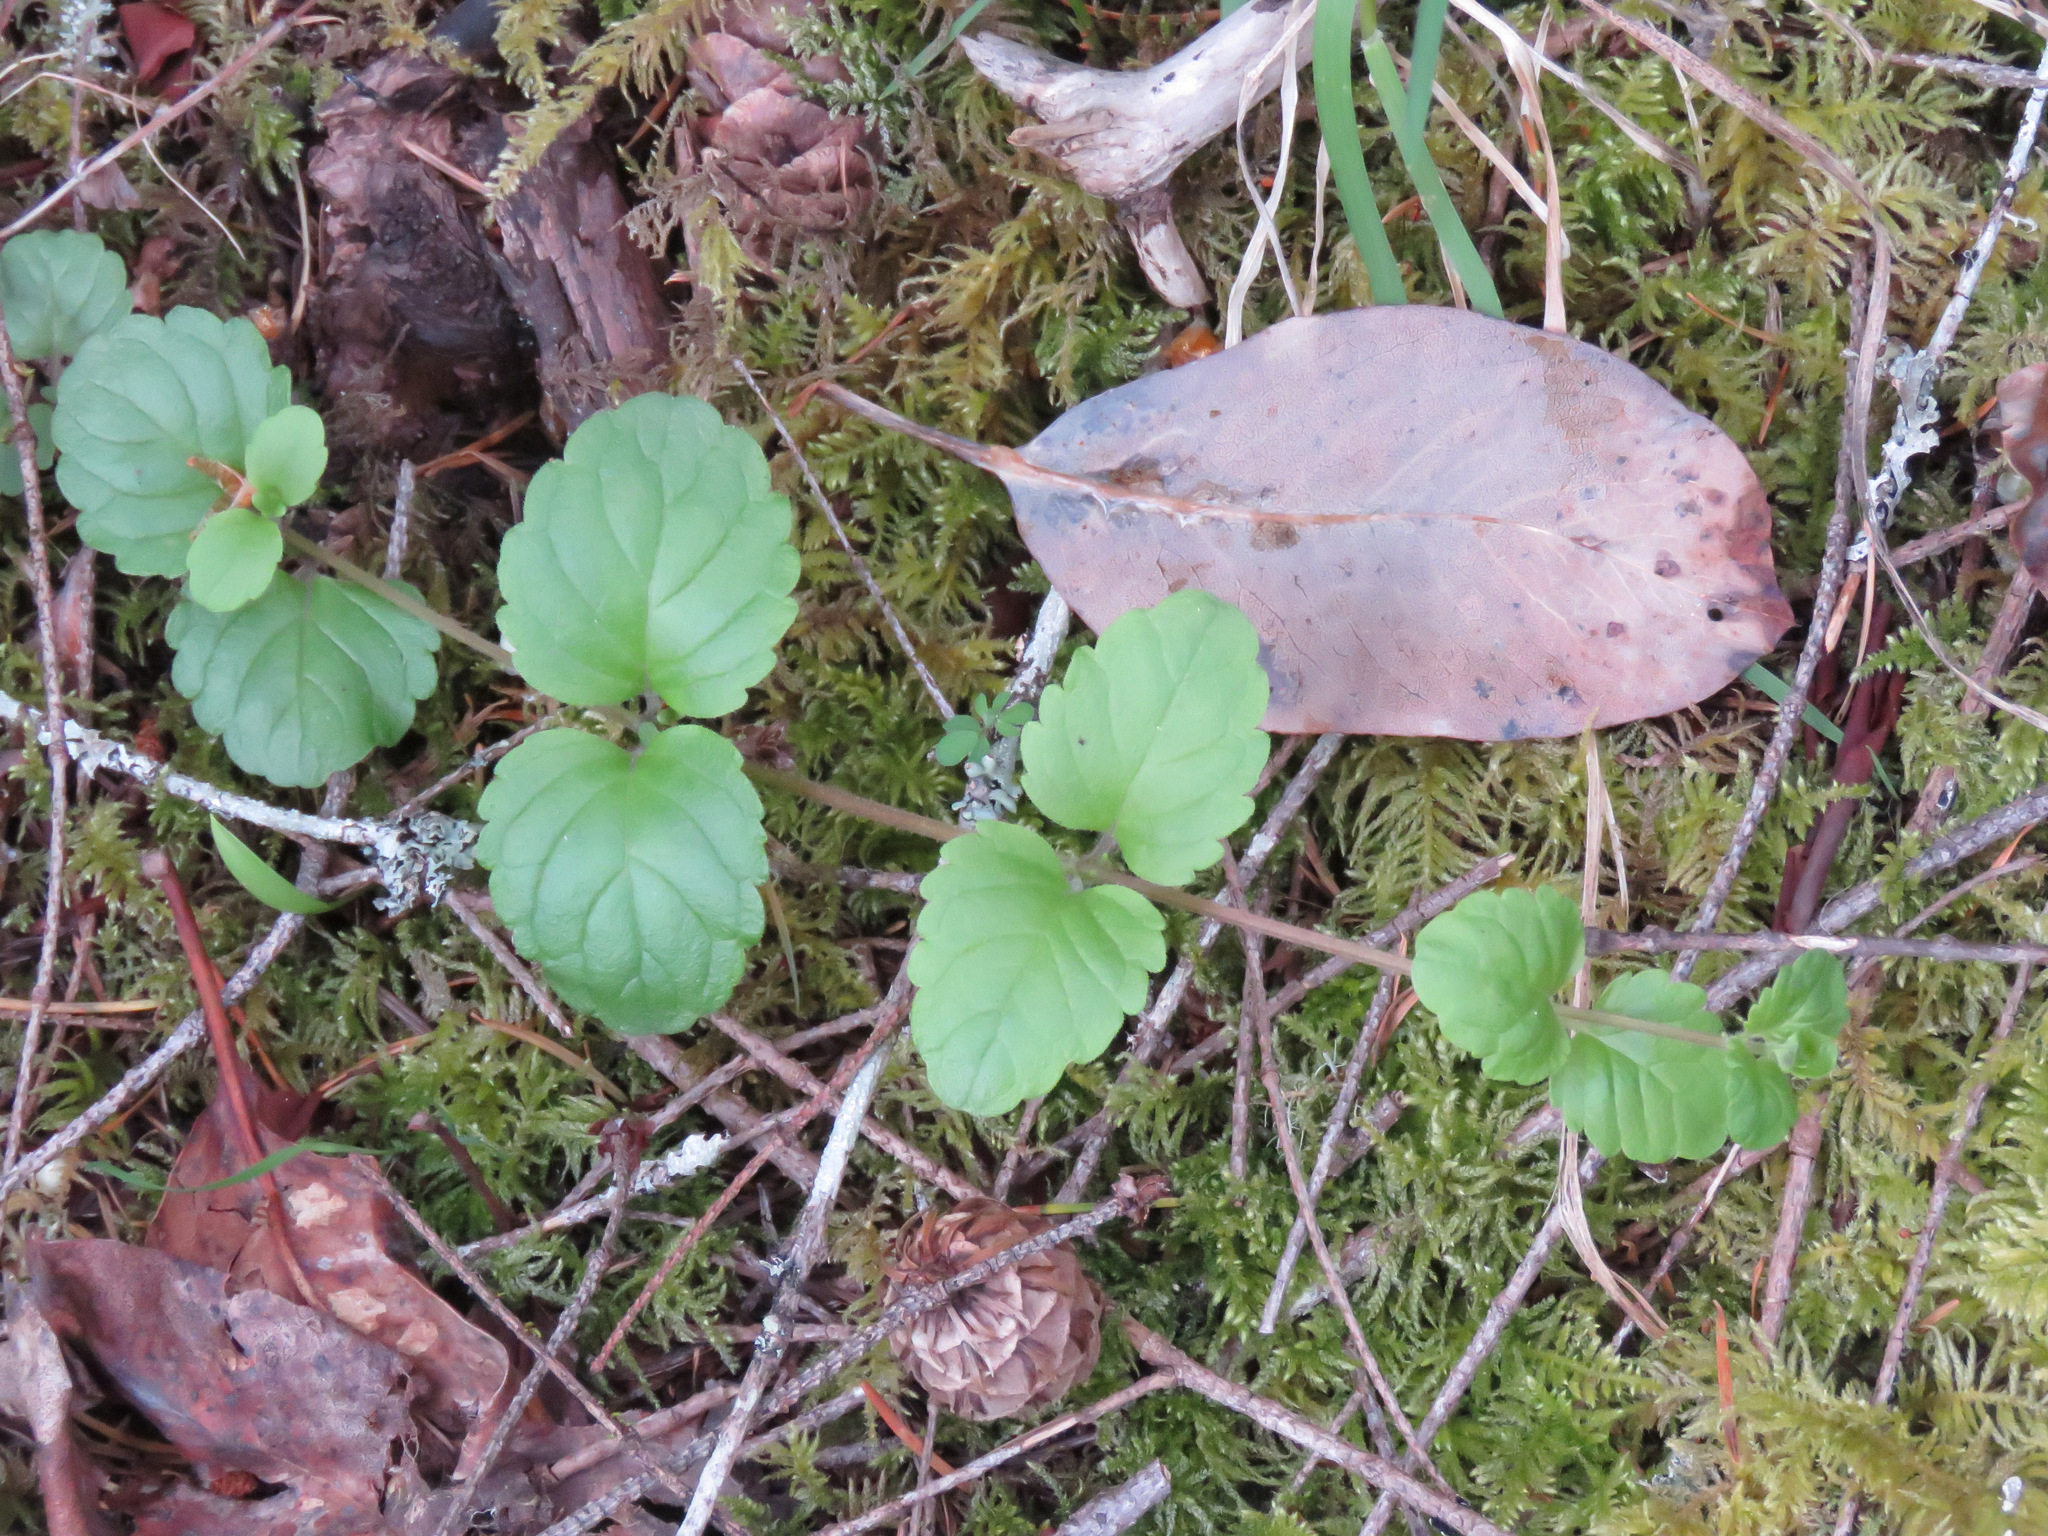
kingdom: Plantae
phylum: Tracheophyta
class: Magnoliopsida
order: Lamiales
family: Lamiaceae
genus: Micromeria
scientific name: Micromeria douglasii
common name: Yerba buena
